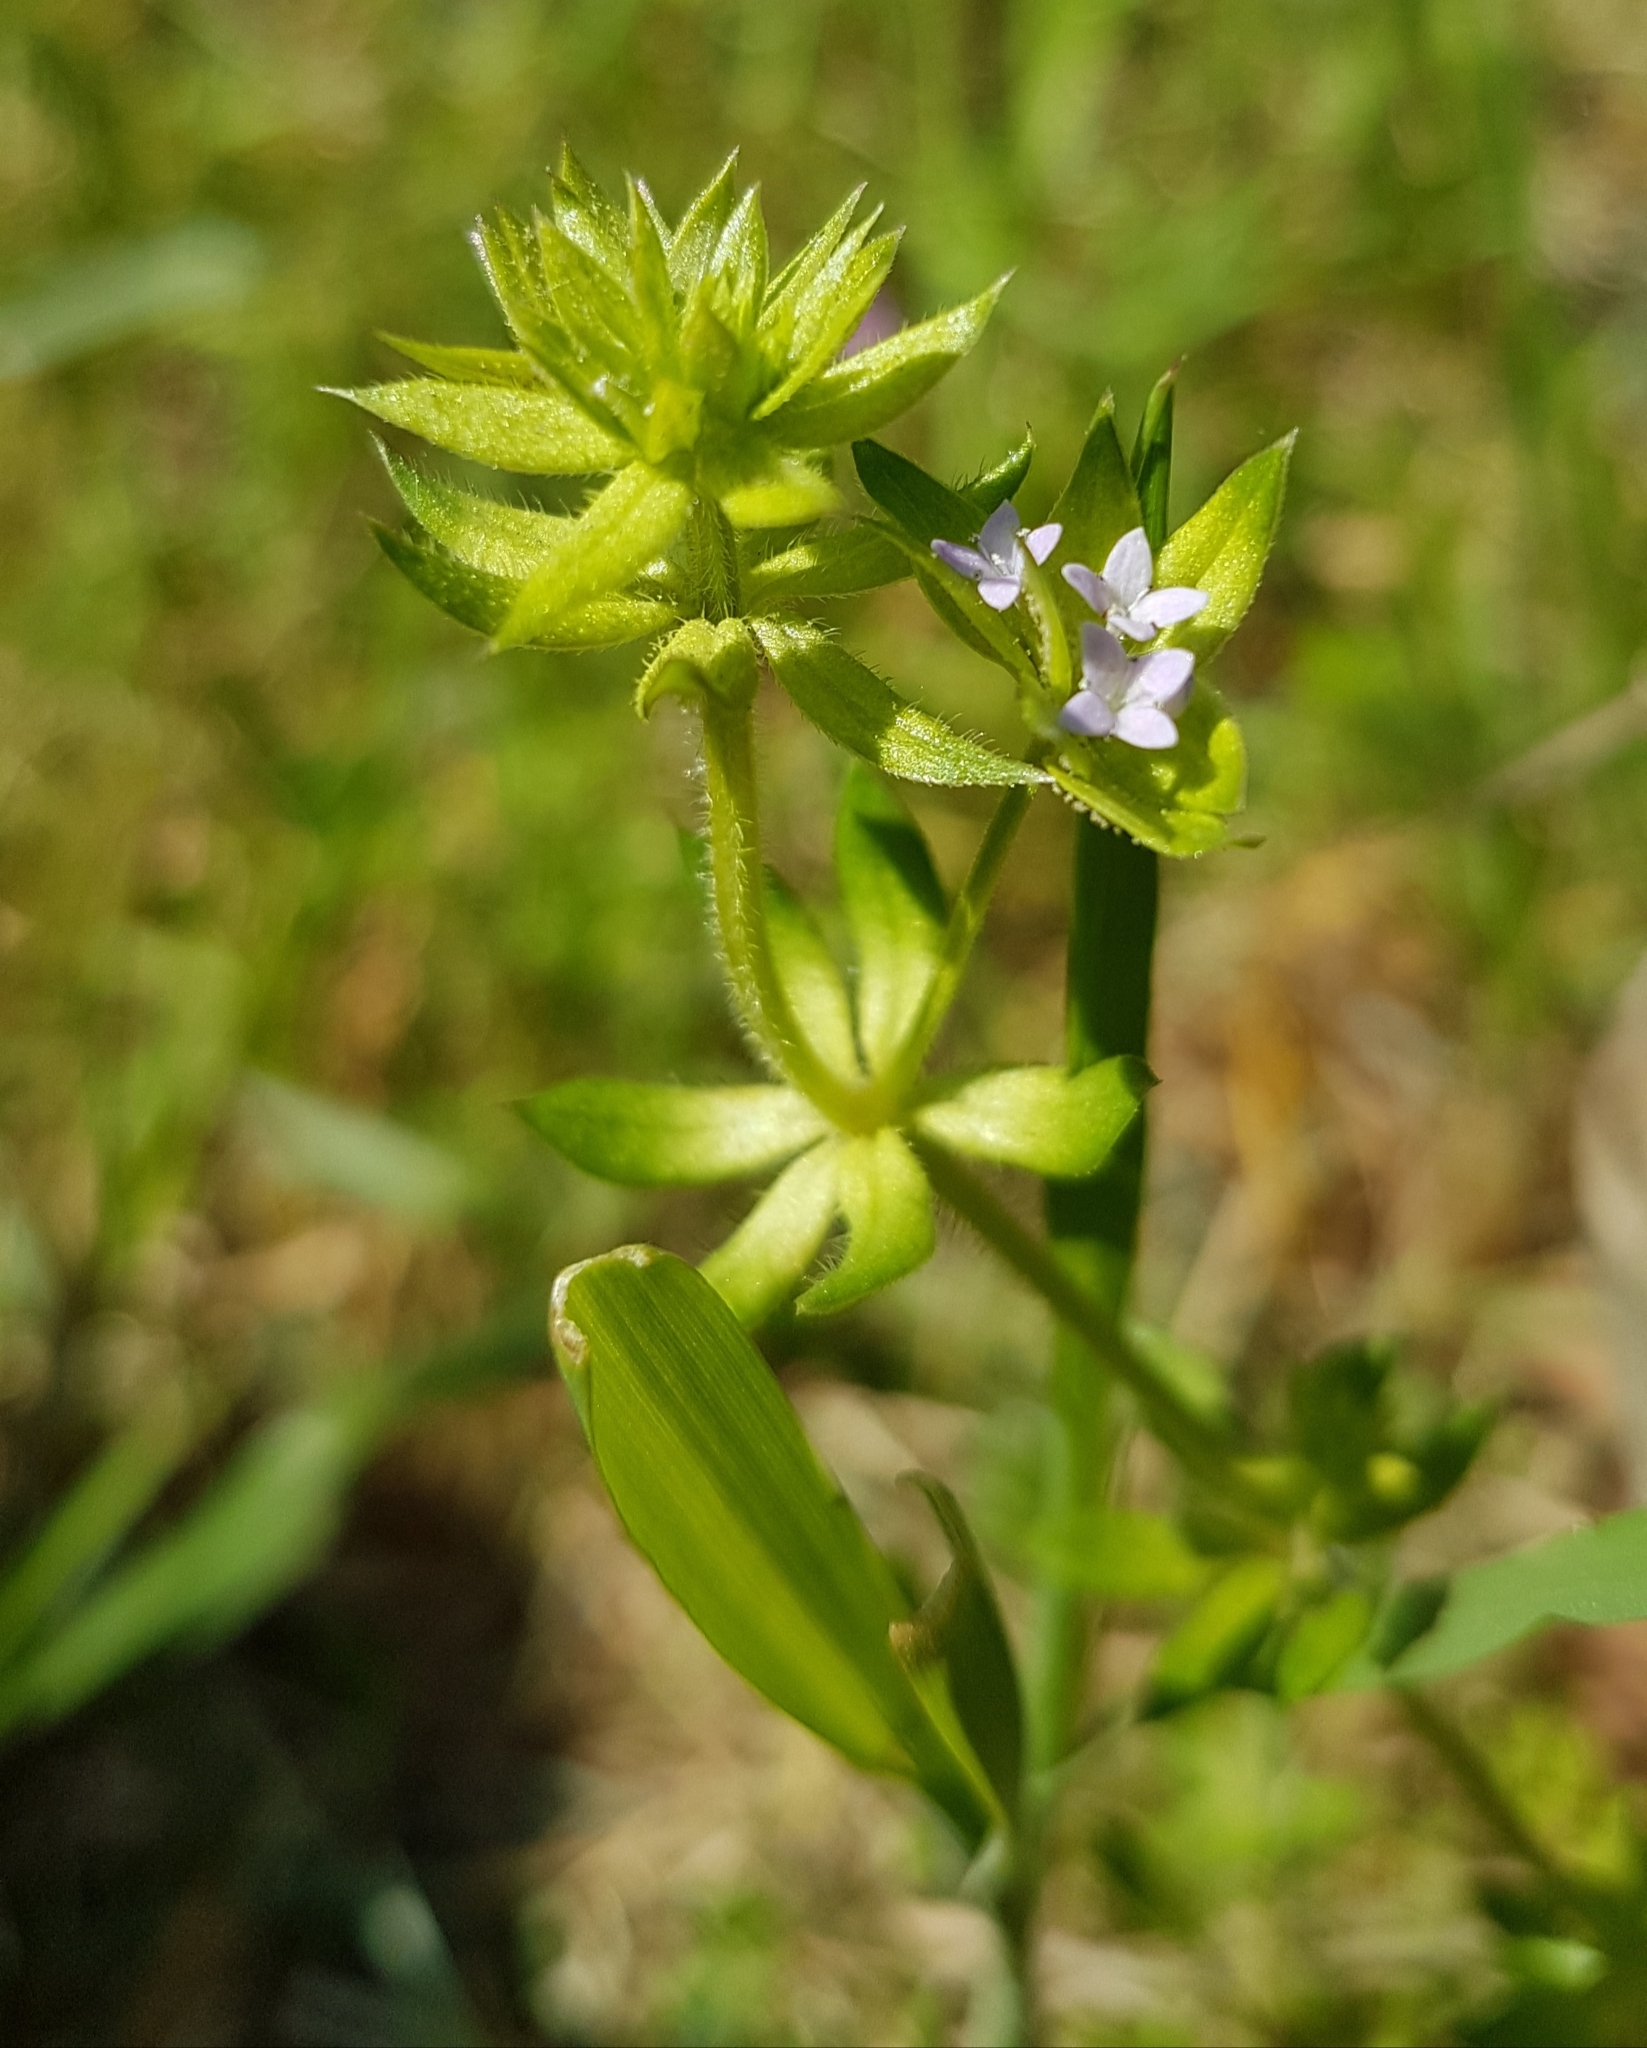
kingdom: Plantae
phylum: Tracheophyta
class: Magnoliopsida
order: Gentianales
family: Rubiaceae
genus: Sherardia
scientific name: Sherardia arvensis
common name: Field madder
